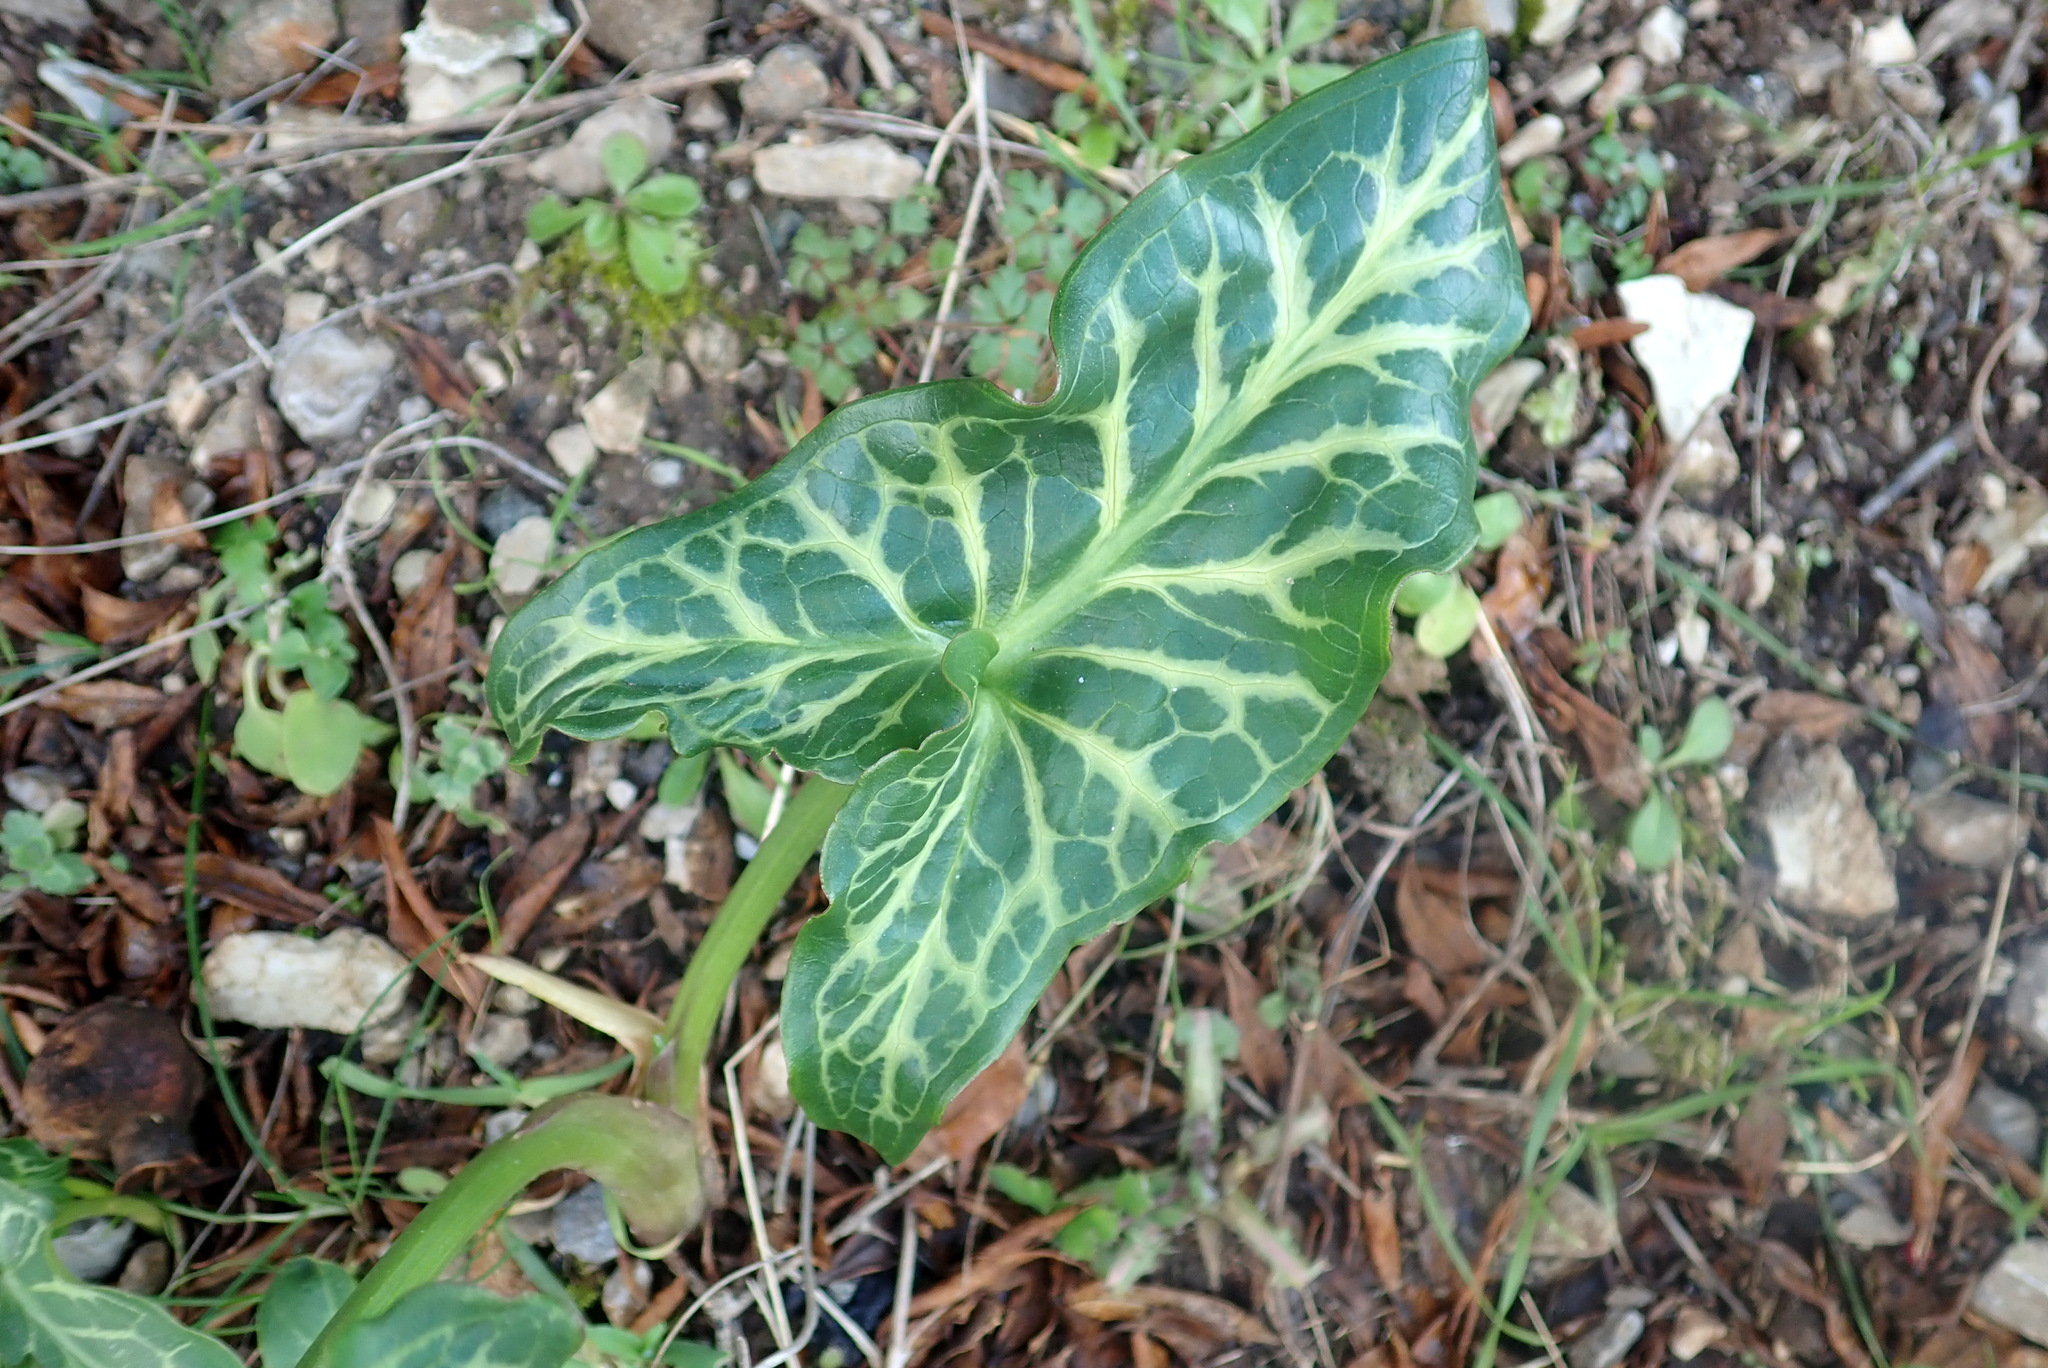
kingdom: Plantae
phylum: Tracheophyta
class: Liliopsida
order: Alismatales
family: Araceae
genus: Arum
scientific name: Arum italicum
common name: Italian lords-and-ladies
